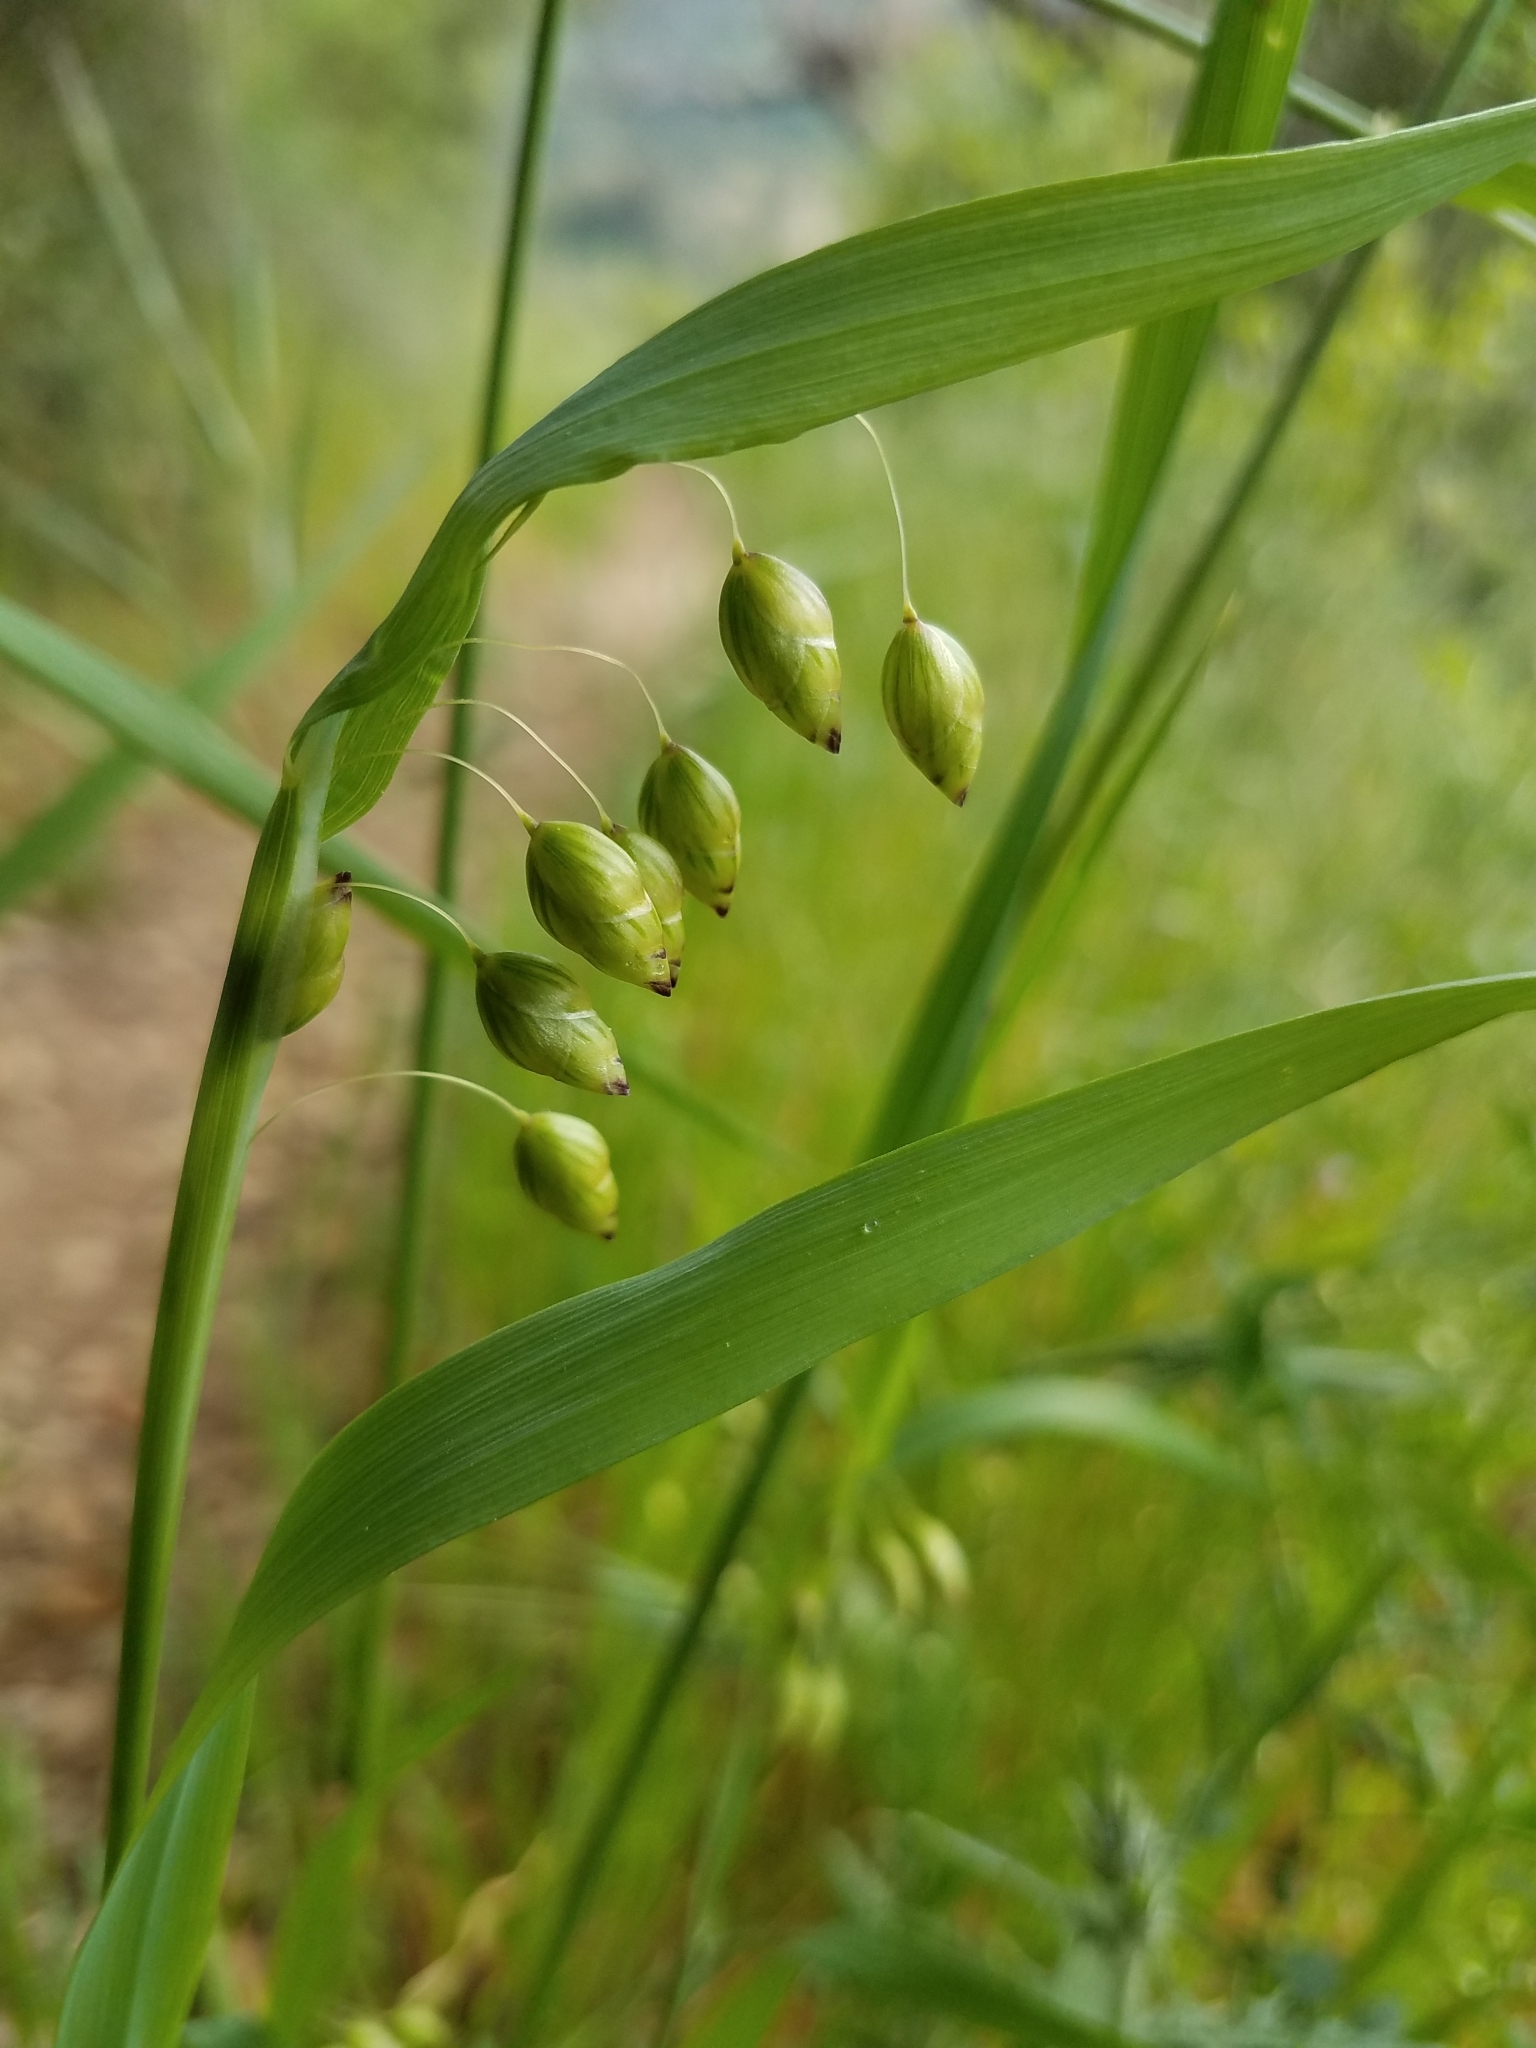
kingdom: Plantae
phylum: Tracheophyta
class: Liliopsida
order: Poales
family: Poaceae
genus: Briza
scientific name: Briza maxima
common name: Big quakinggrass
